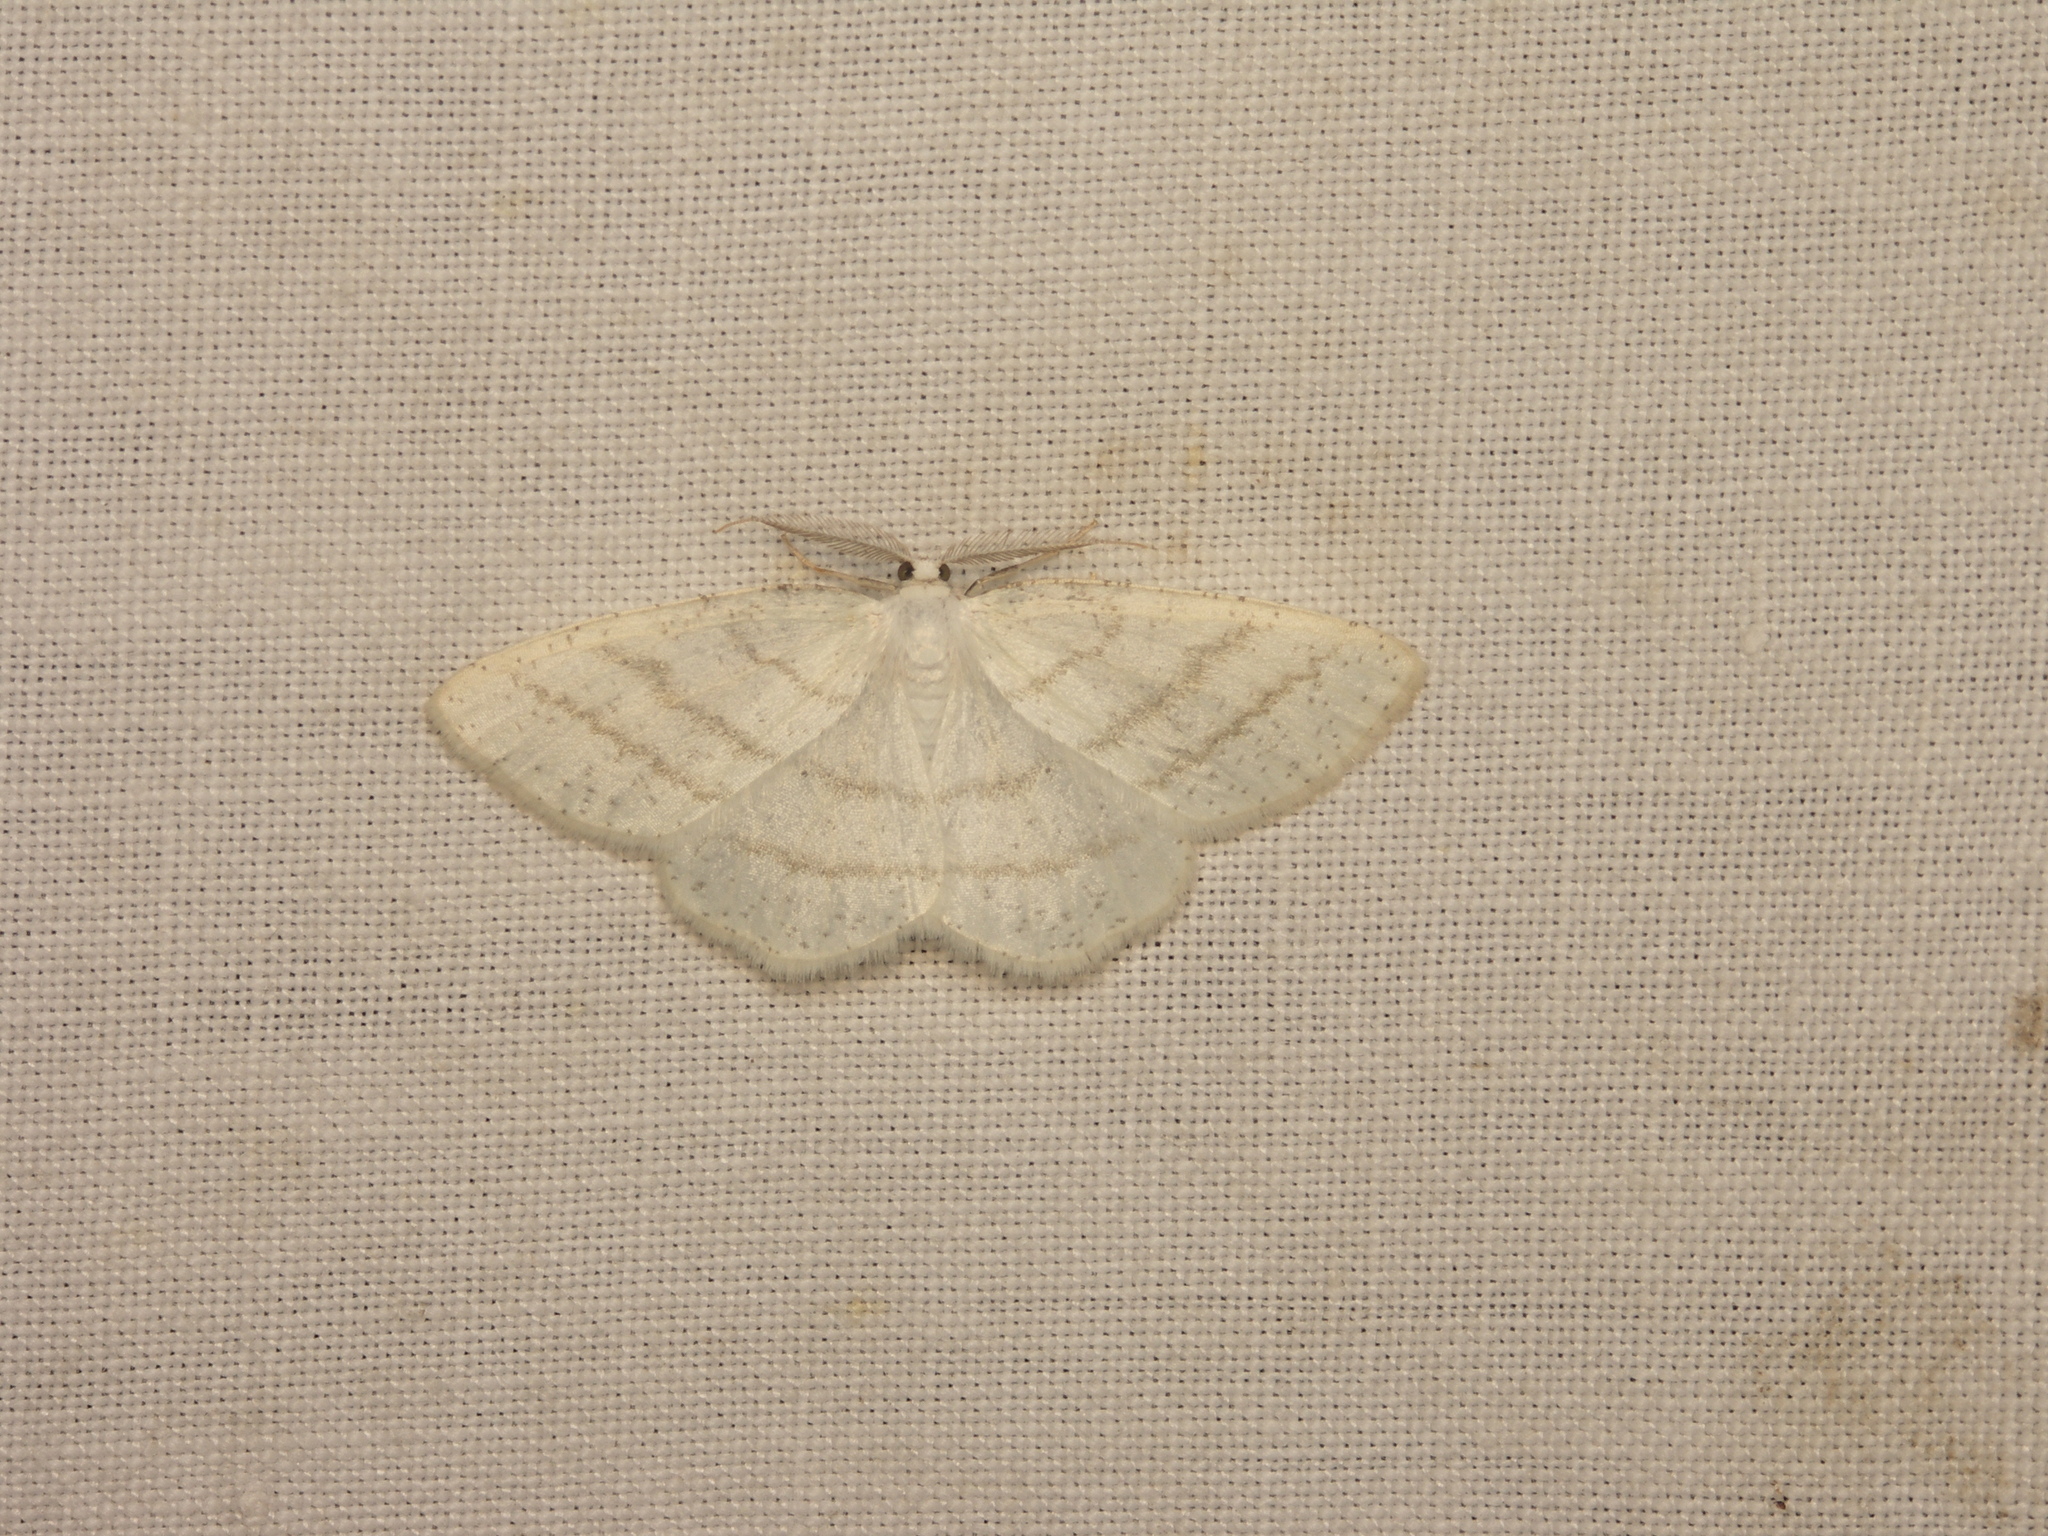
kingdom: Animalia
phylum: Arthropoda
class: Insecta
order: Lepidoptera
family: Geometridae
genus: Cabera
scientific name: Cabera pusaria
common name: Common white wave
